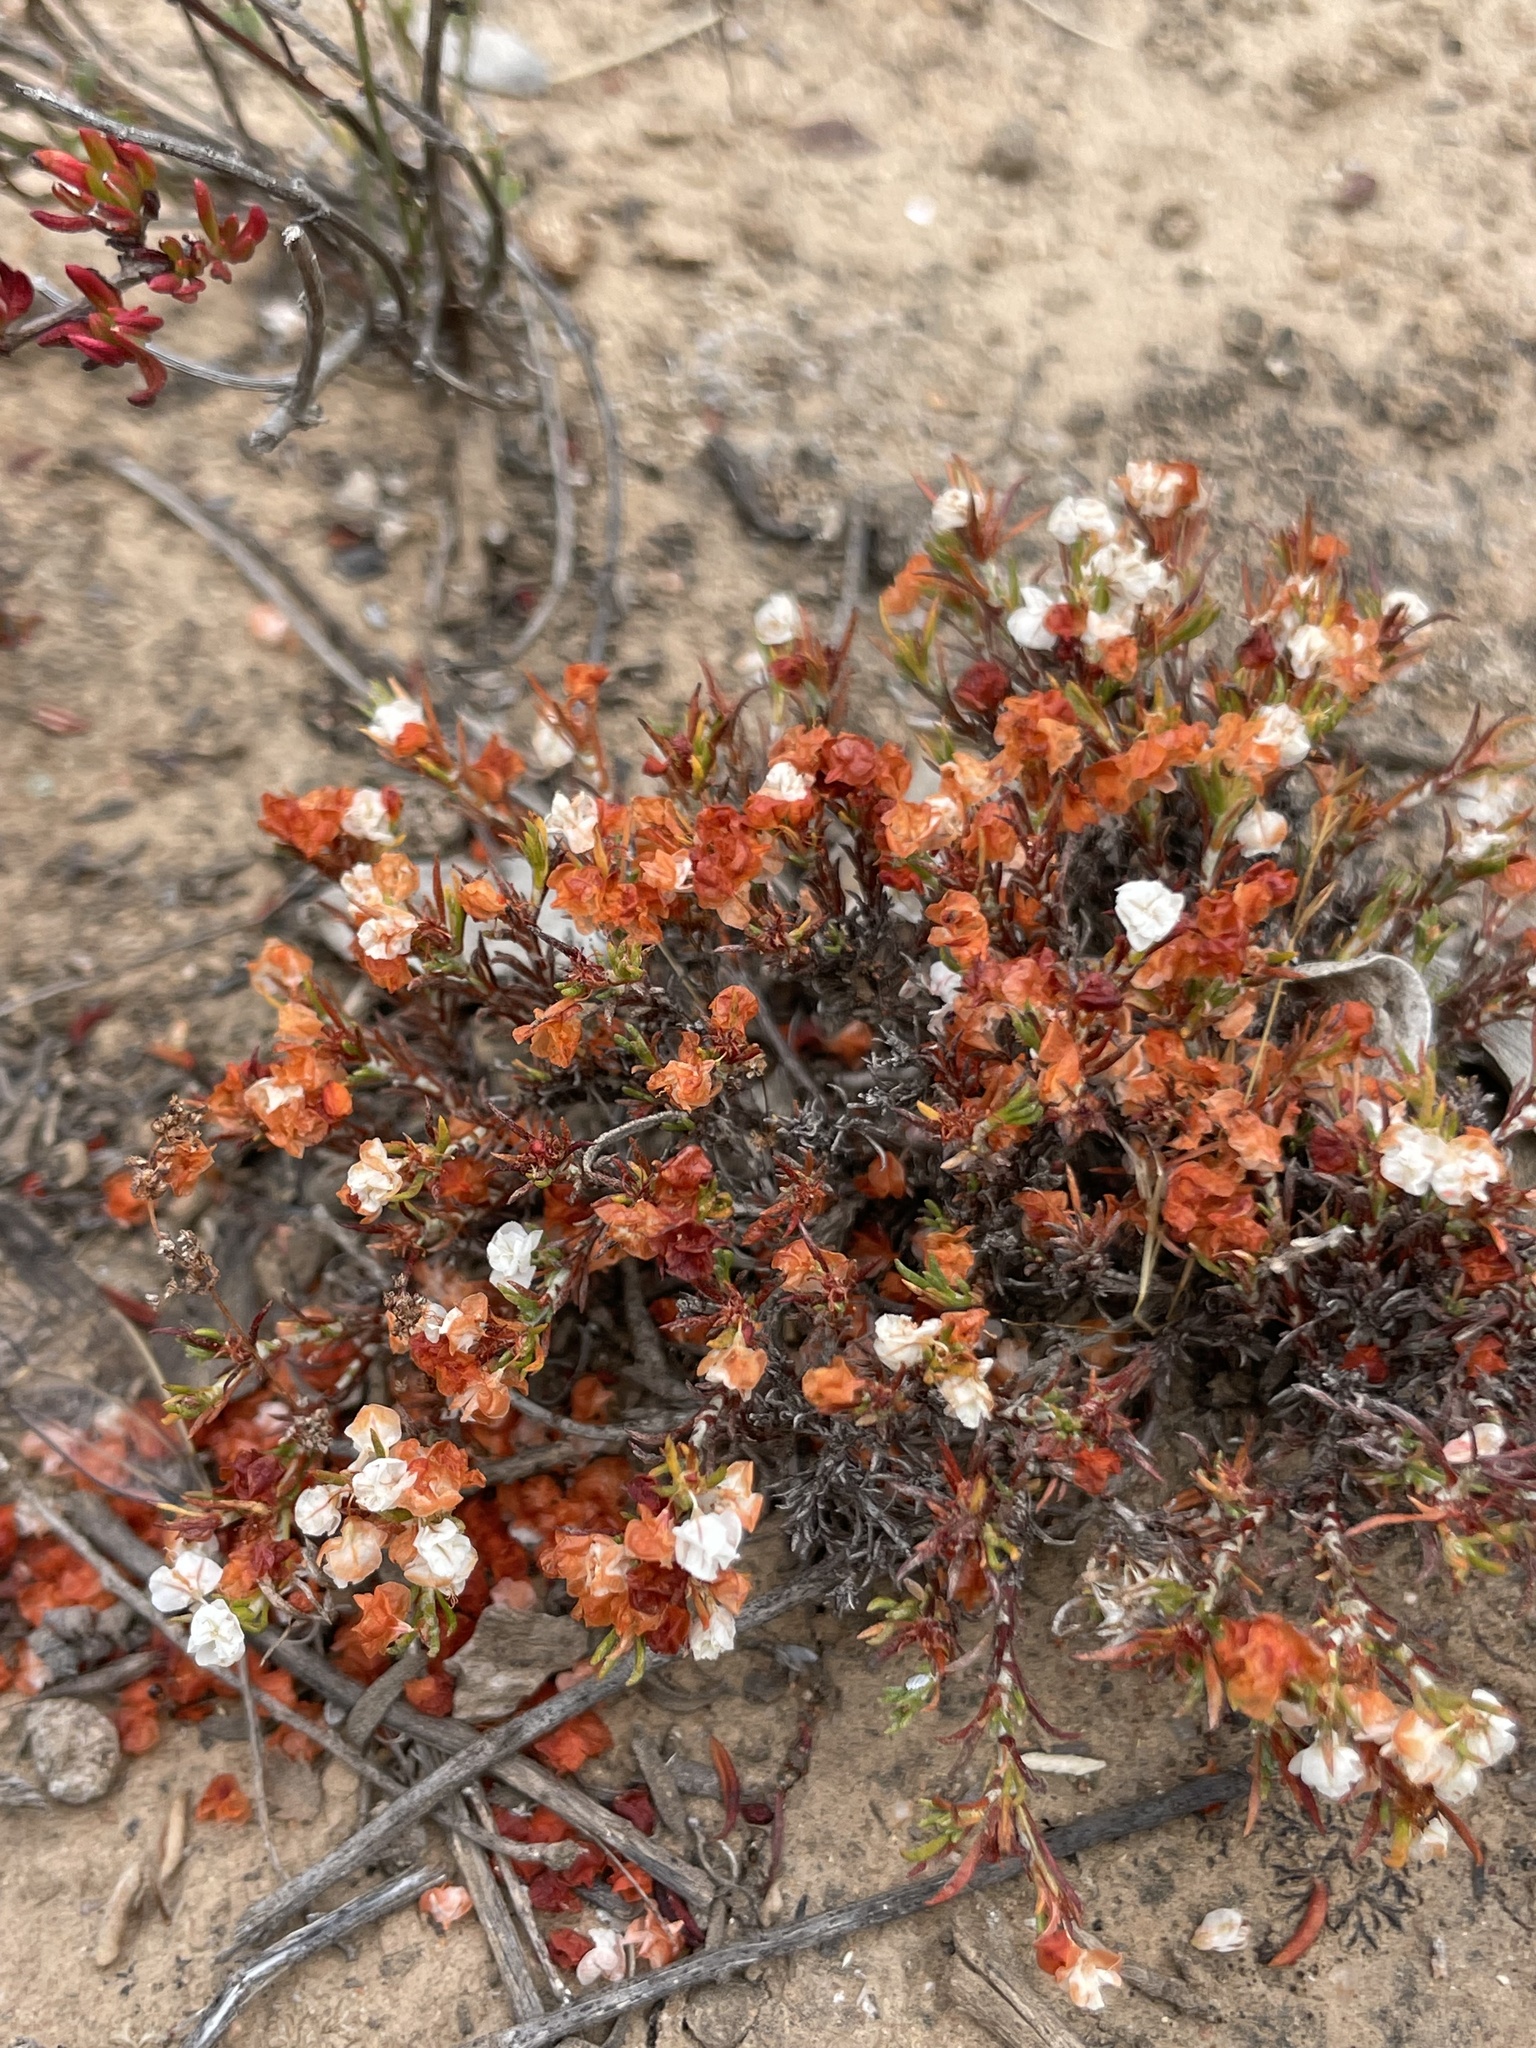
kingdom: Plantae
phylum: Tracheophyta
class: Magnoliopsida
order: Caryophyllales
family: Polygonaceae
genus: Eriogonum
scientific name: Eriogonum fastigiatum
